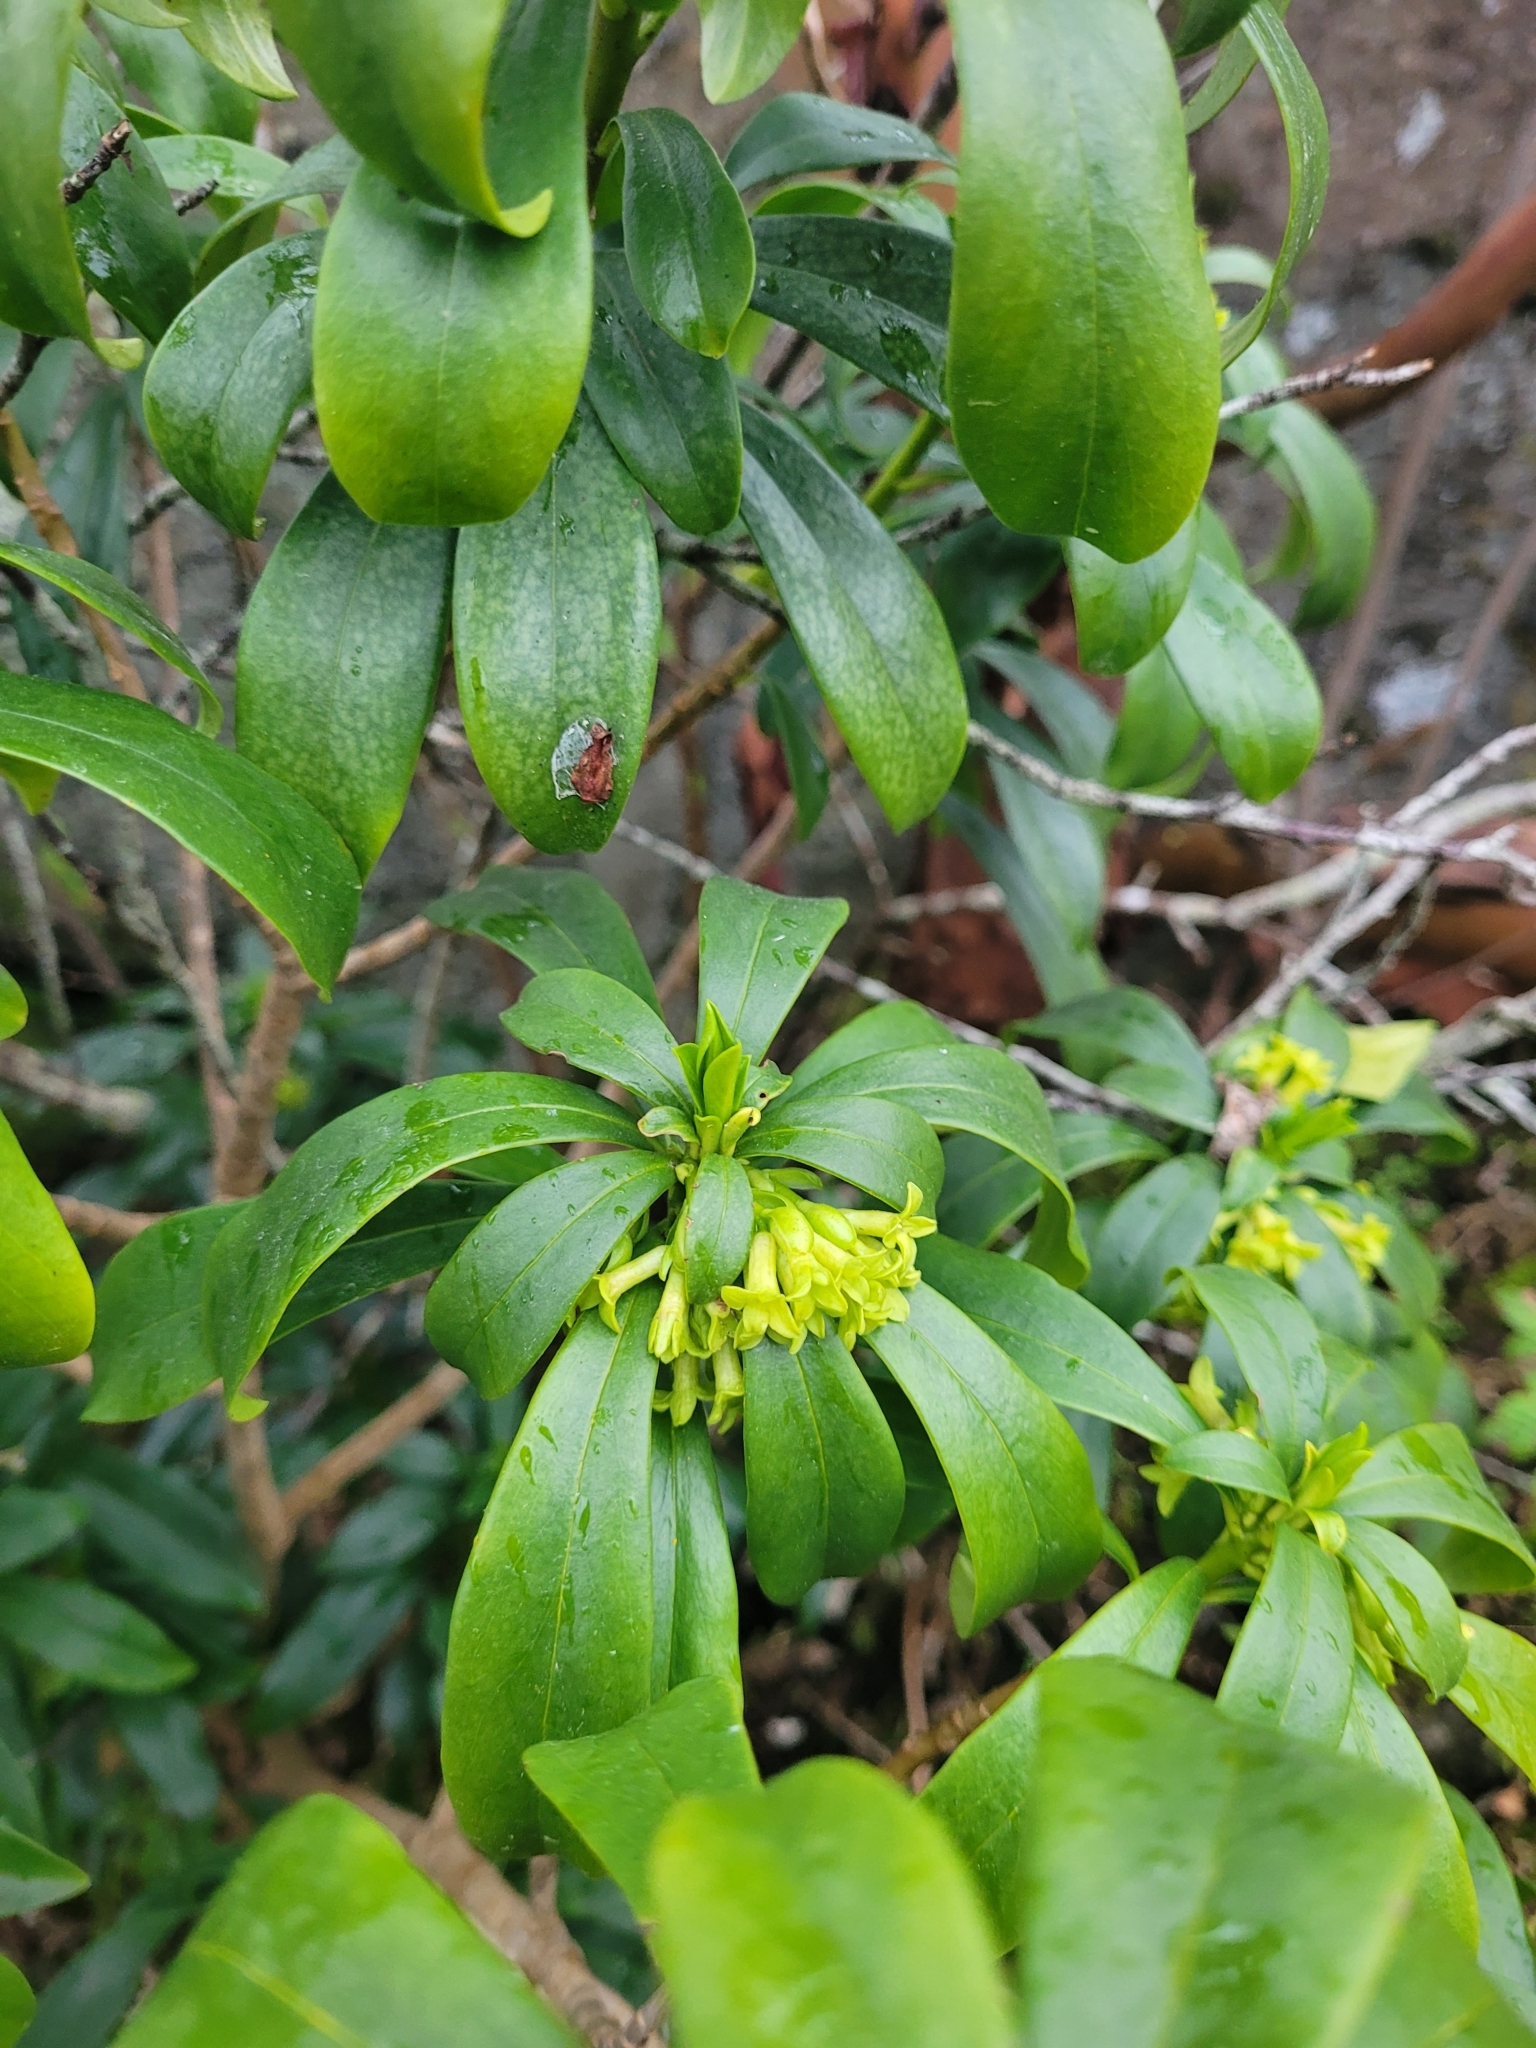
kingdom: Plantae
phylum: Tracheophyta
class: Magnoliopsida
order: Malvales
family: Thymelaeaceae
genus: Daphne
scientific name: Daphne laureola
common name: Spurge-laurel
